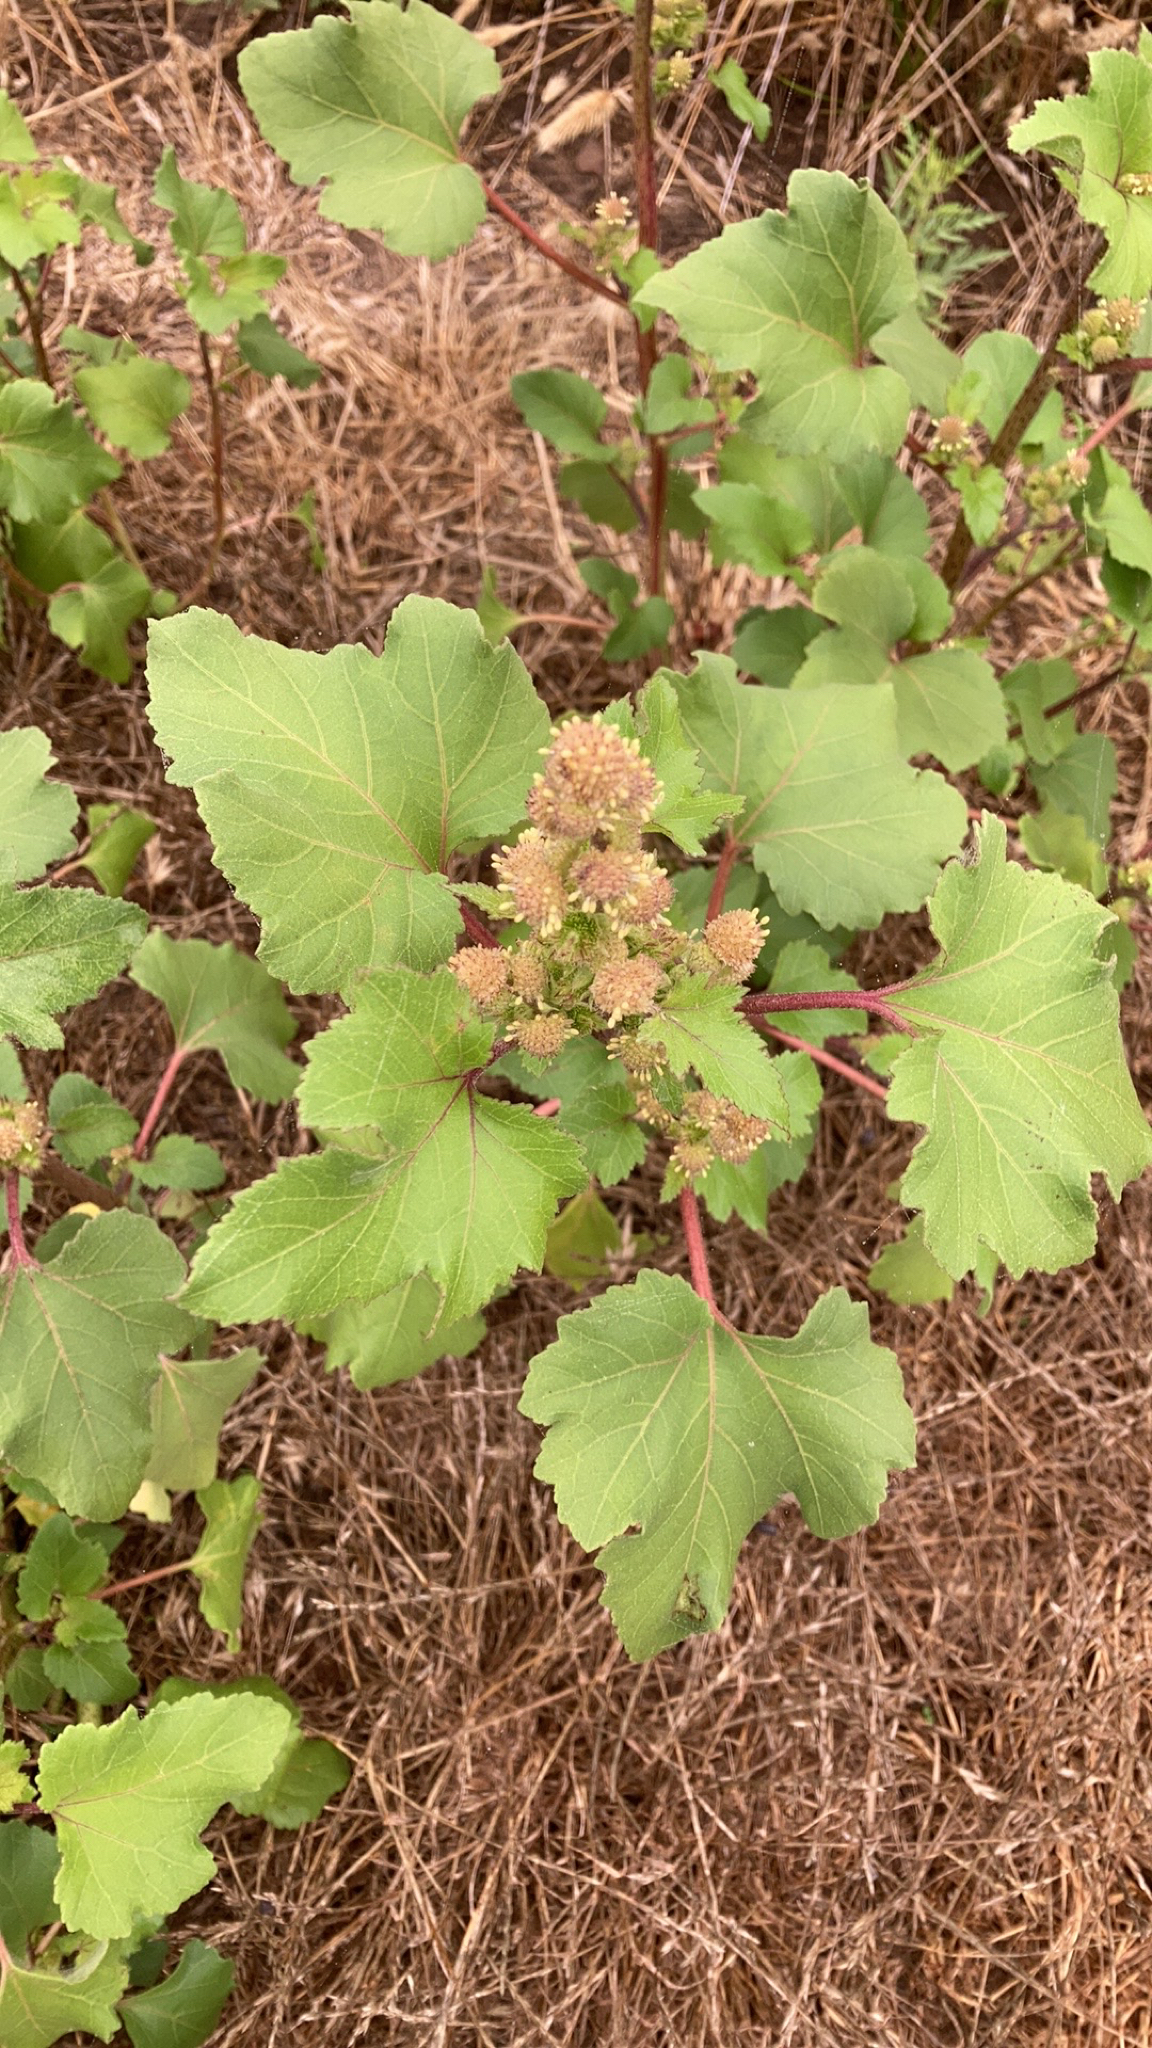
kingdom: Plantae
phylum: Tracheophyta
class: Magnoliopsida
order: Asterales
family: Asteraceae
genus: Xanthium
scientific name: Xanthium strumarium
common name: Rough cocklebur
